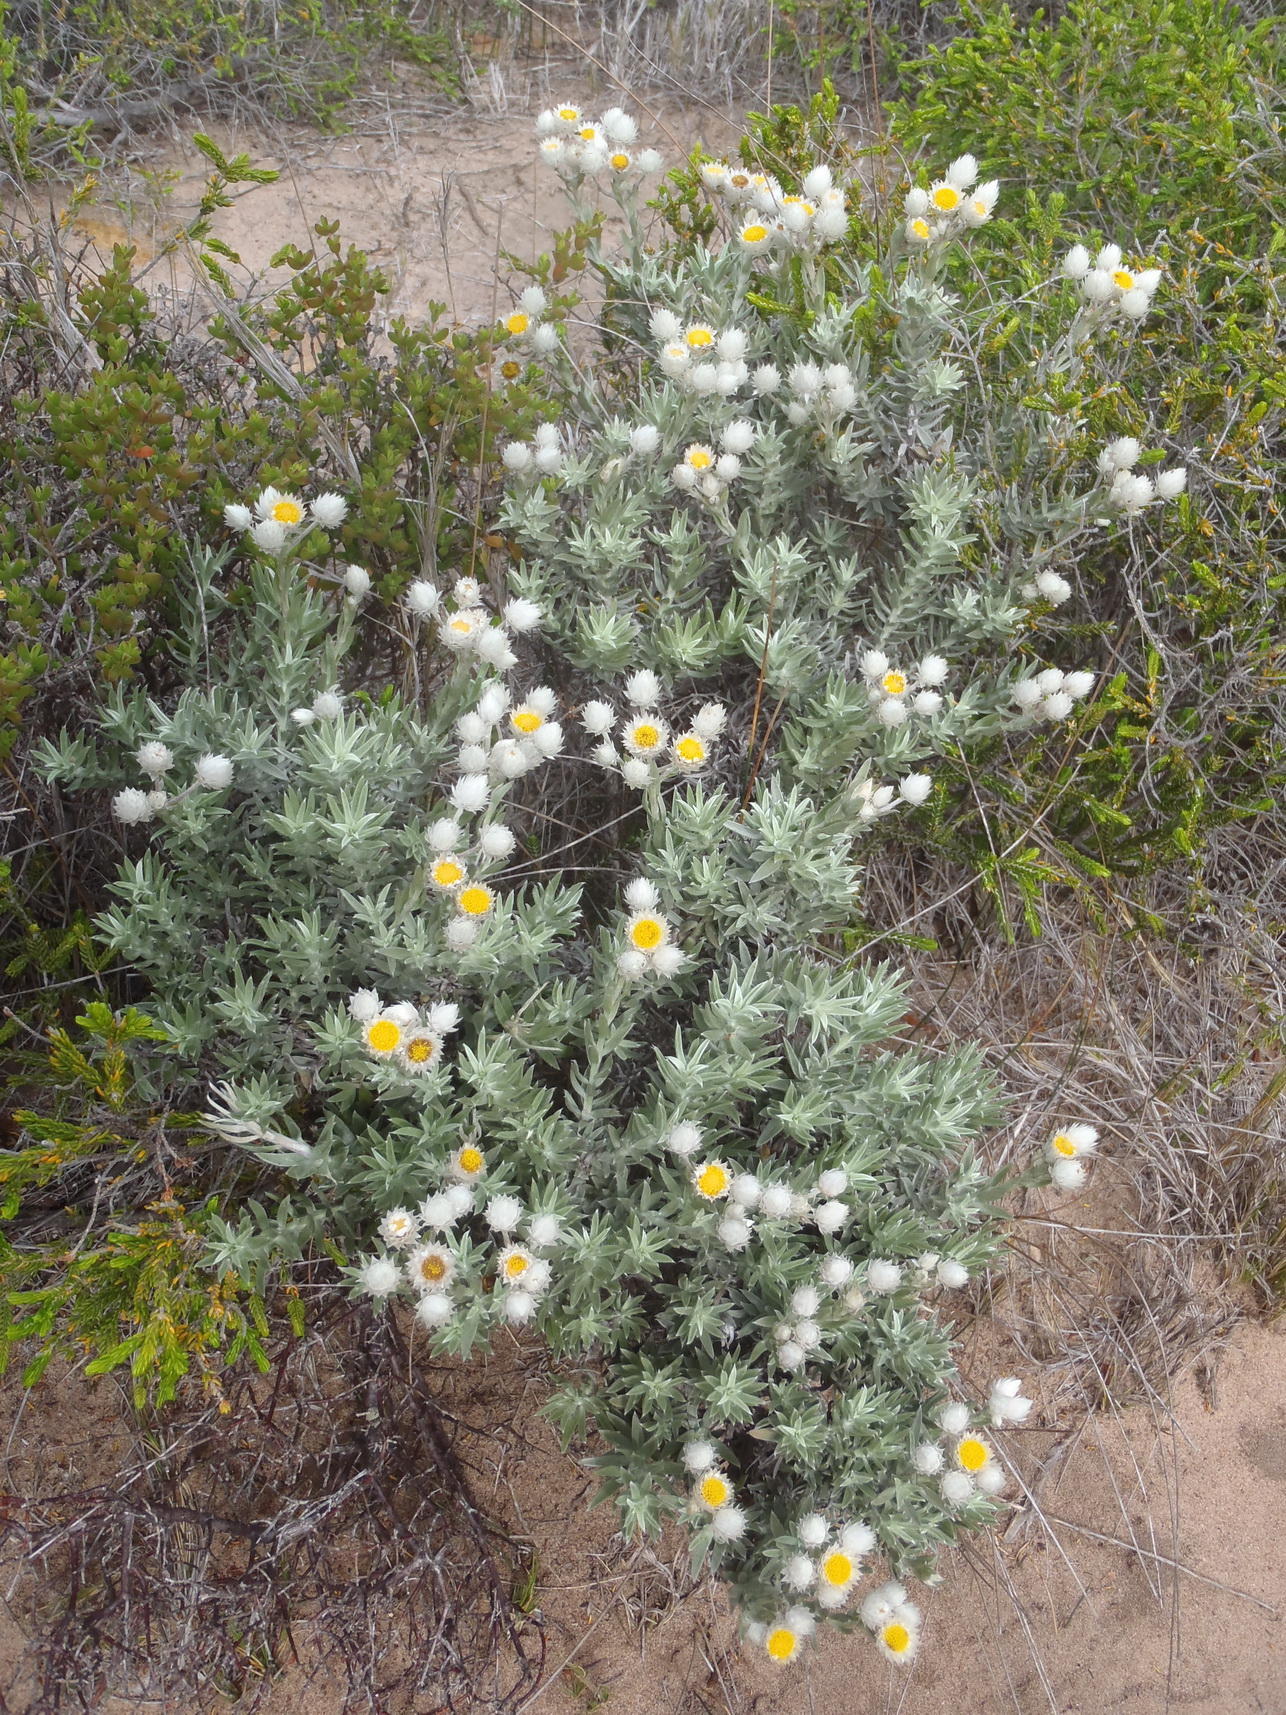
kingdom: Plantae
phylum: Tracheophyta
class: Magnoliopsida
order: Asterales
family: Asteraceae
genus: Achyranthemum
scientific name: Achyranthemum paniculatum
